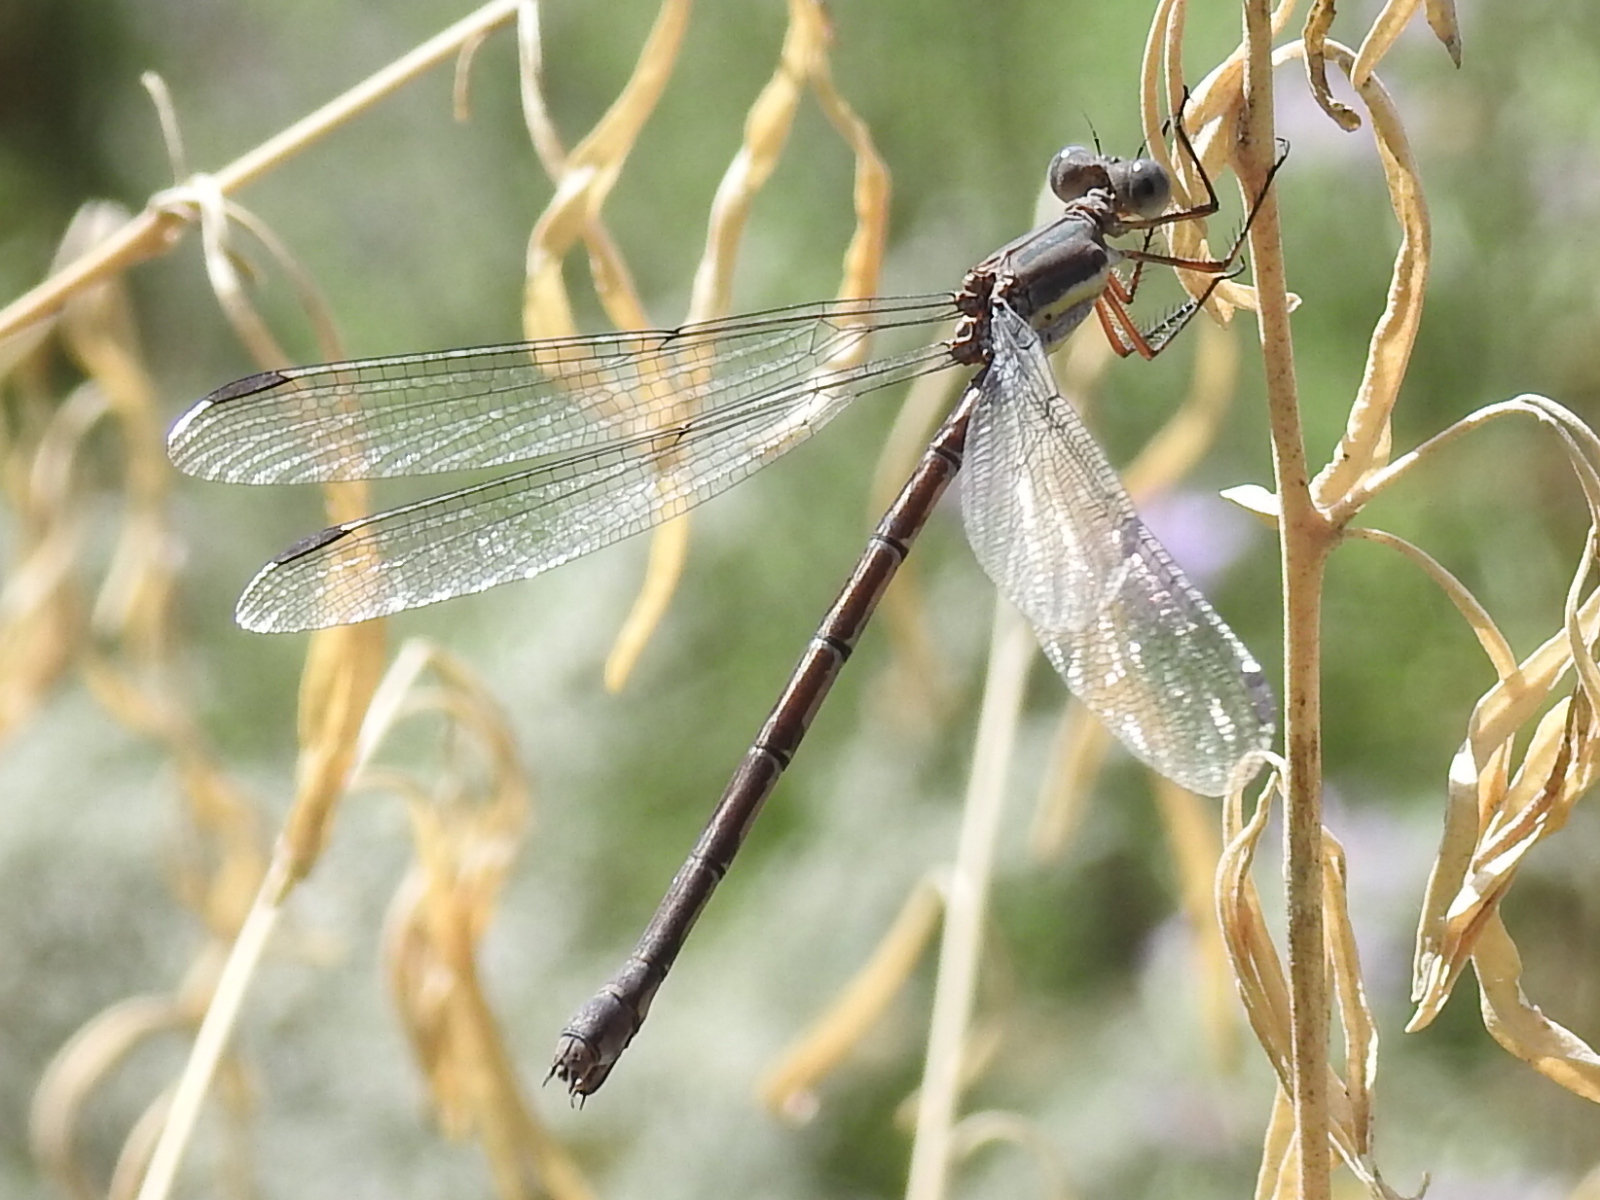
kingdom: Animalia
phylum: Arthropoda
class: Insecta
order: Odonata
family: Lestidae
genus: Archilestes
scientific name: Archilestes grandis
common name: Great spreadwing
